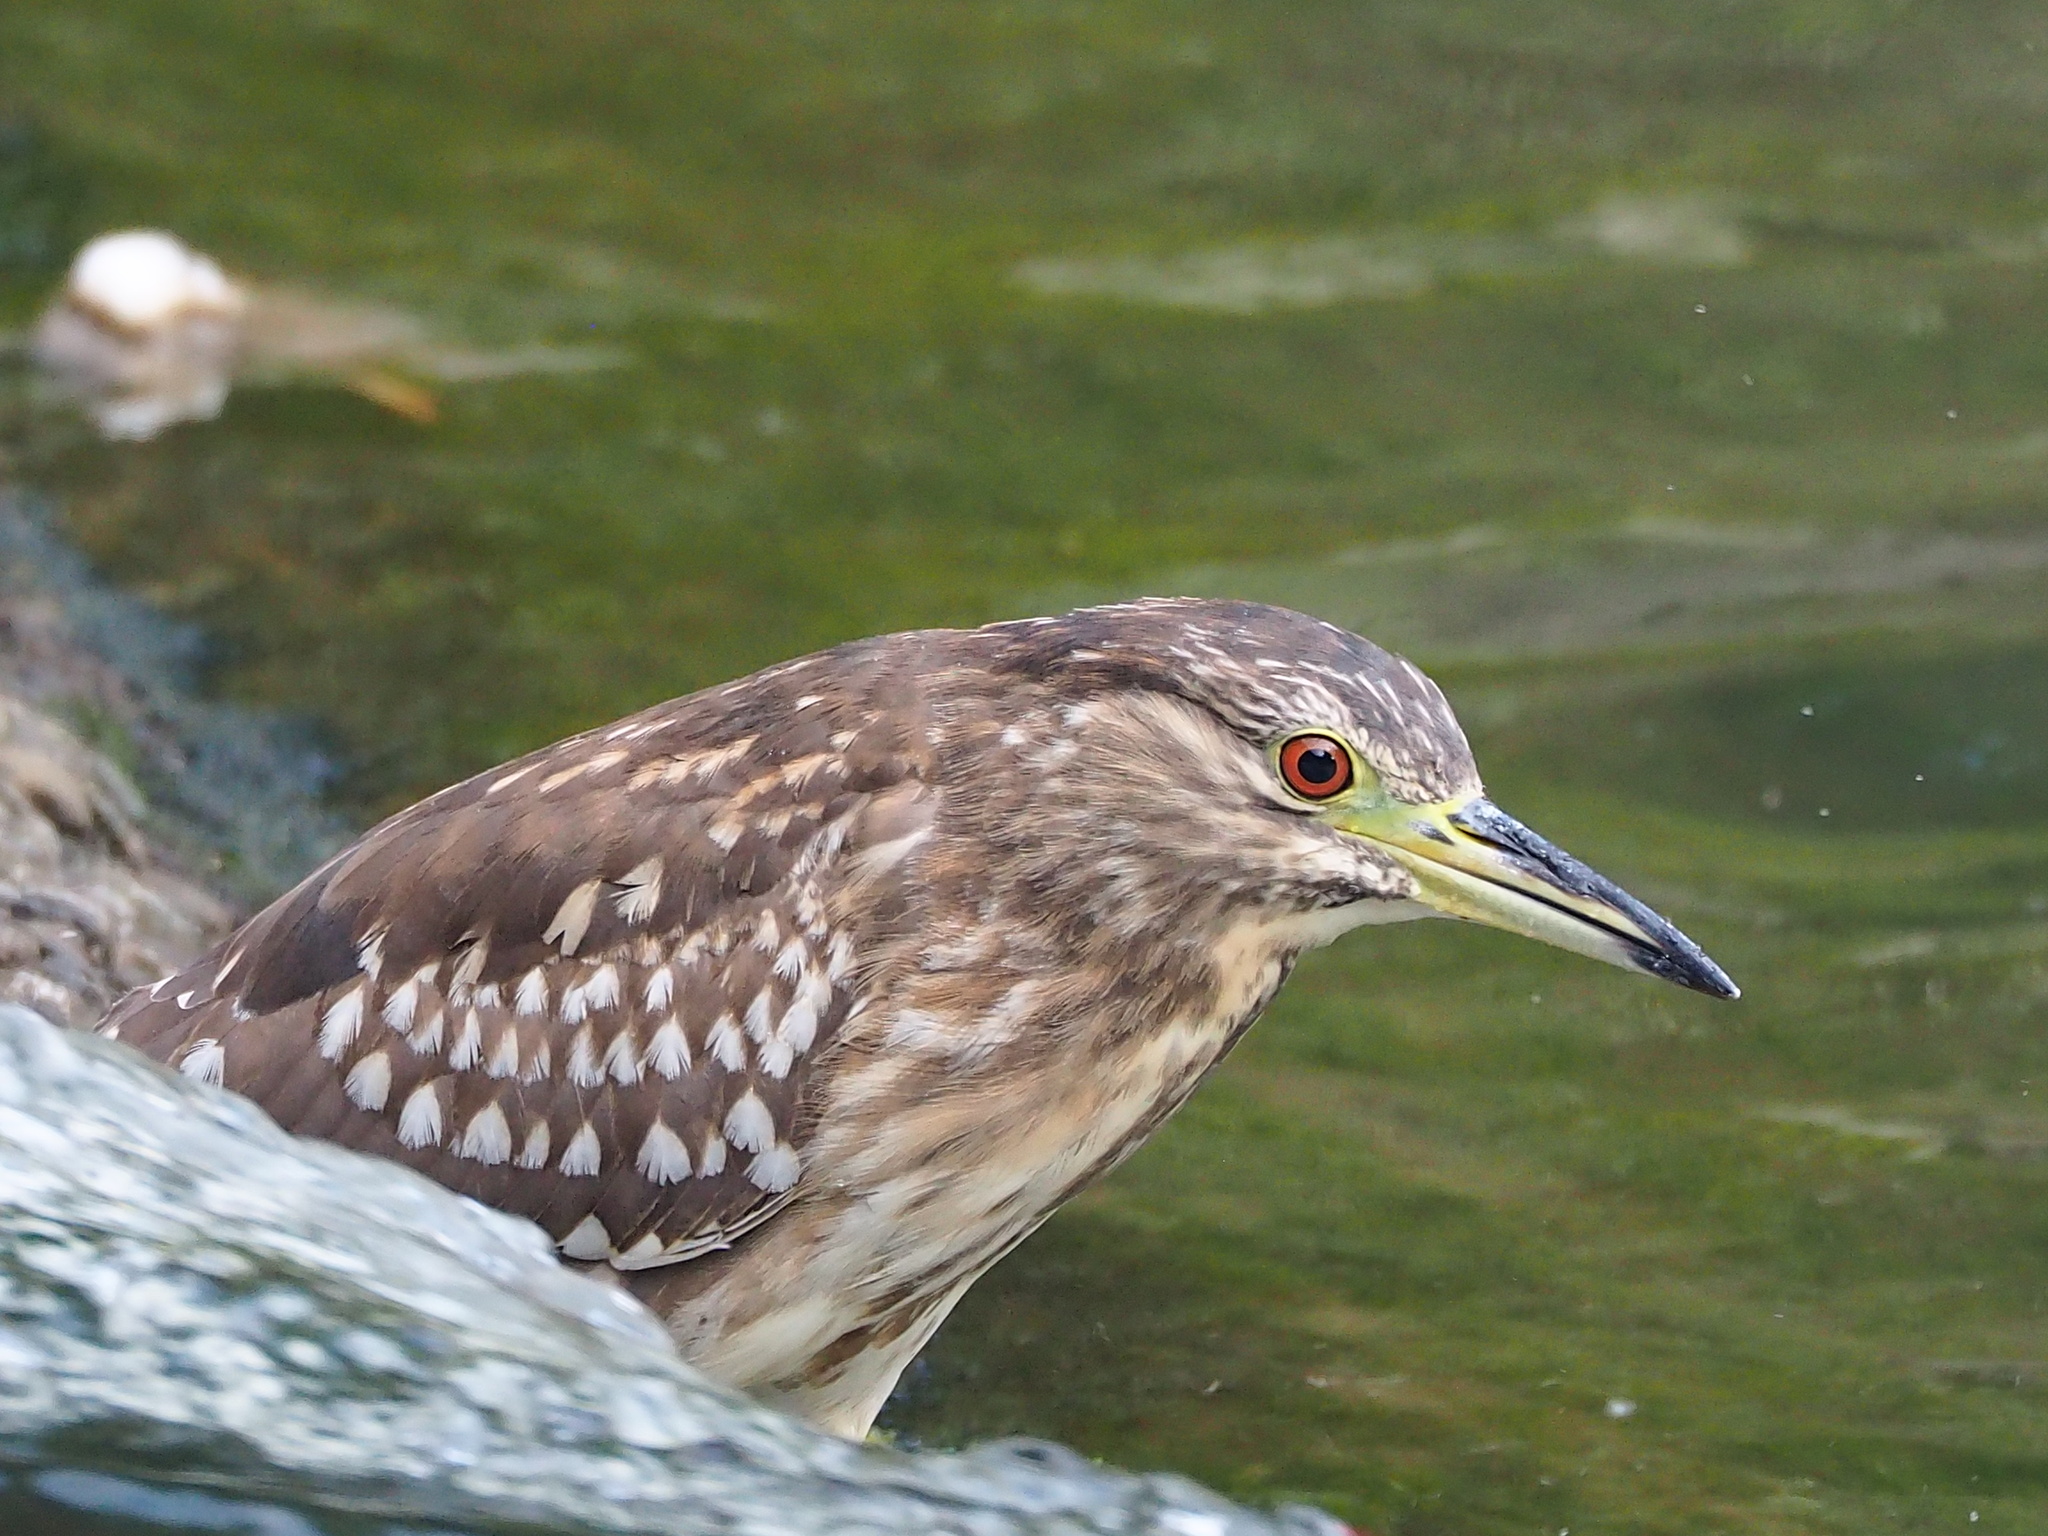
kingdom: Animalia
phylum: Chordata
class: Aves
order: Pelecaniformes
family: Ardeidae
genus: Nycticorax
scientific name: Nycticorax nycticorax
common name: Black-crowned night heron
